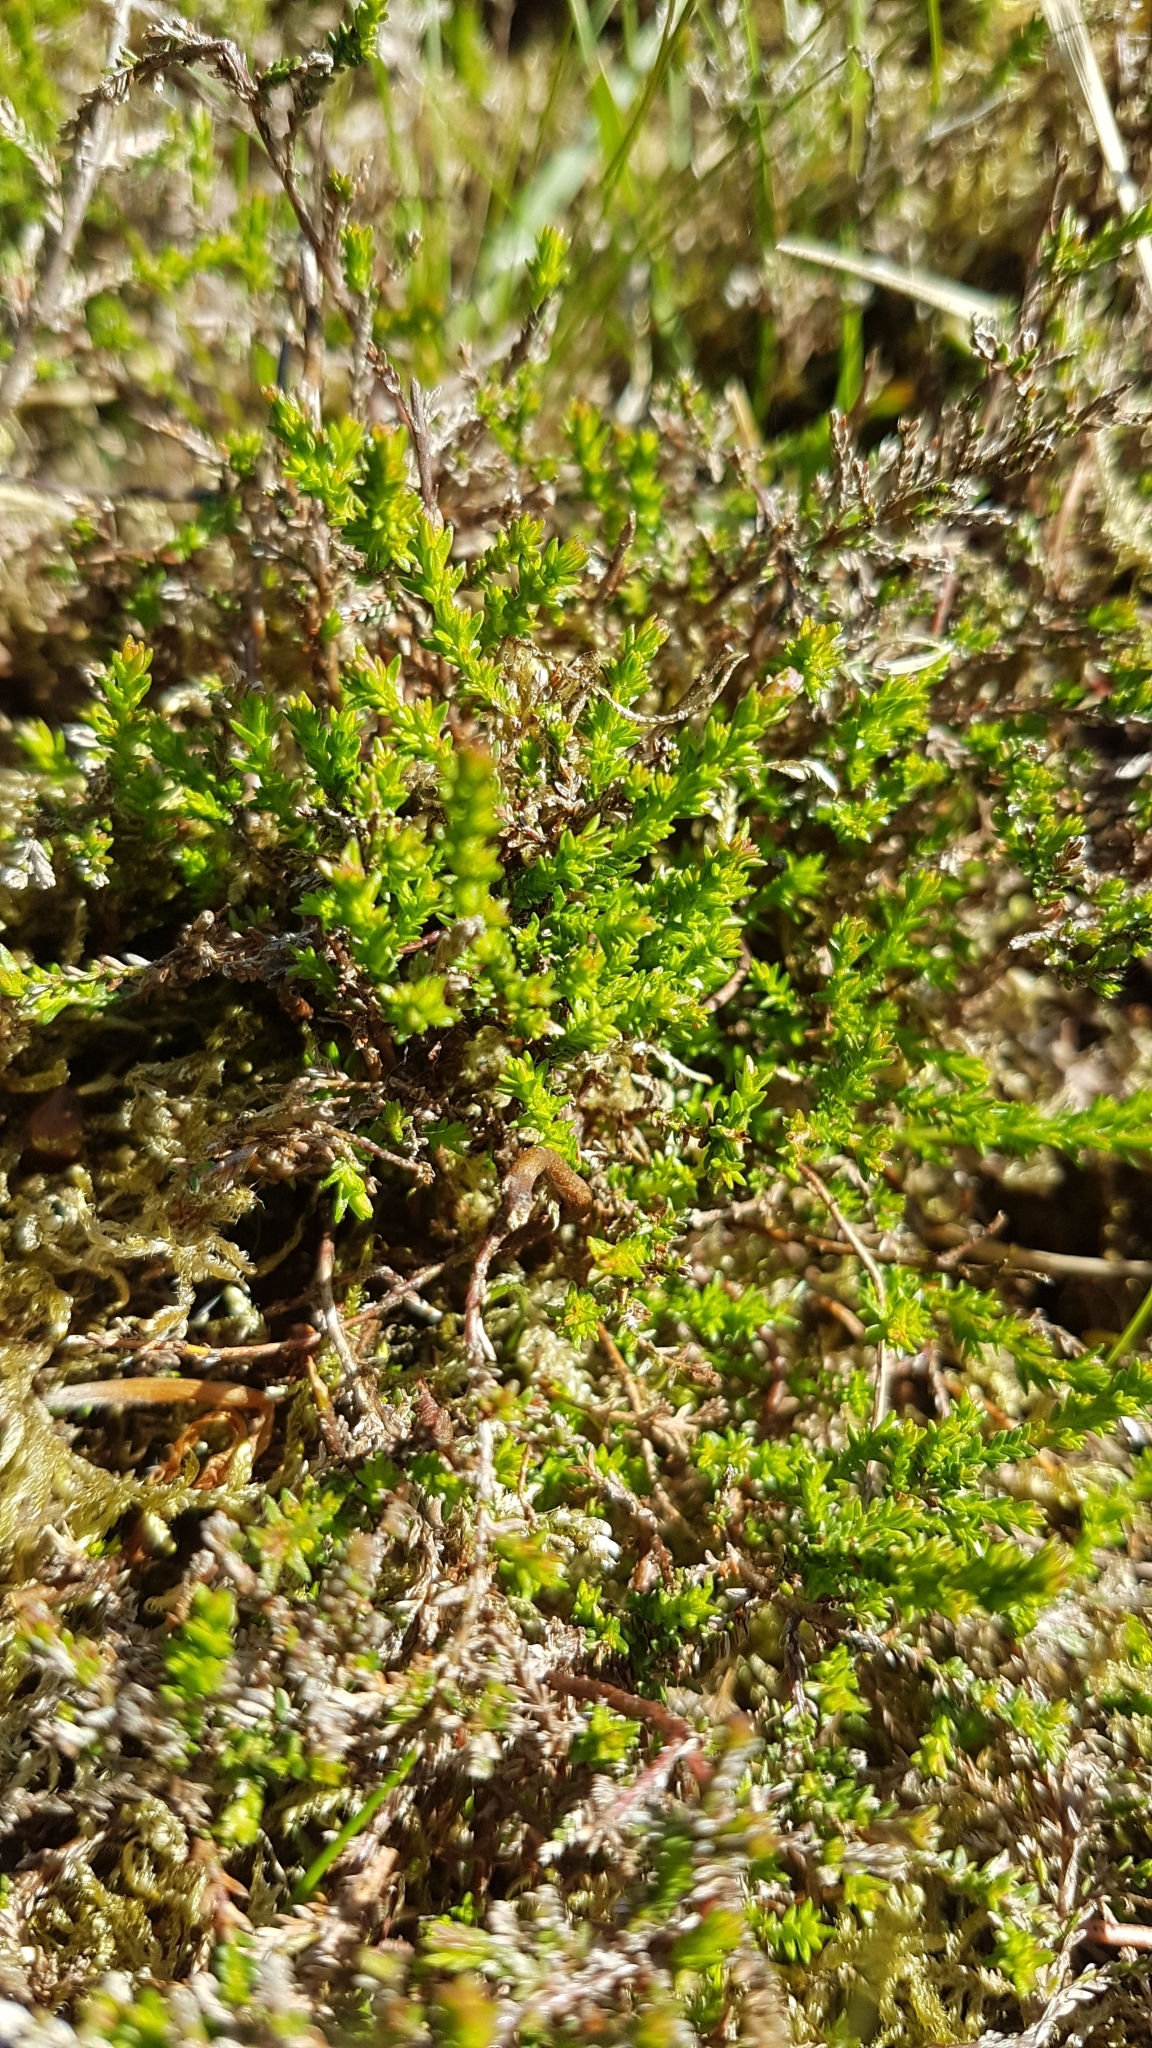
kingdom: Plantae
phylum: Tracheophyta
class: Magnoliopsida
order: Ericales
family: Ericaceae
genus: Empetrum
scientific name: Empetrum nigrum
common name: Black crowberry
